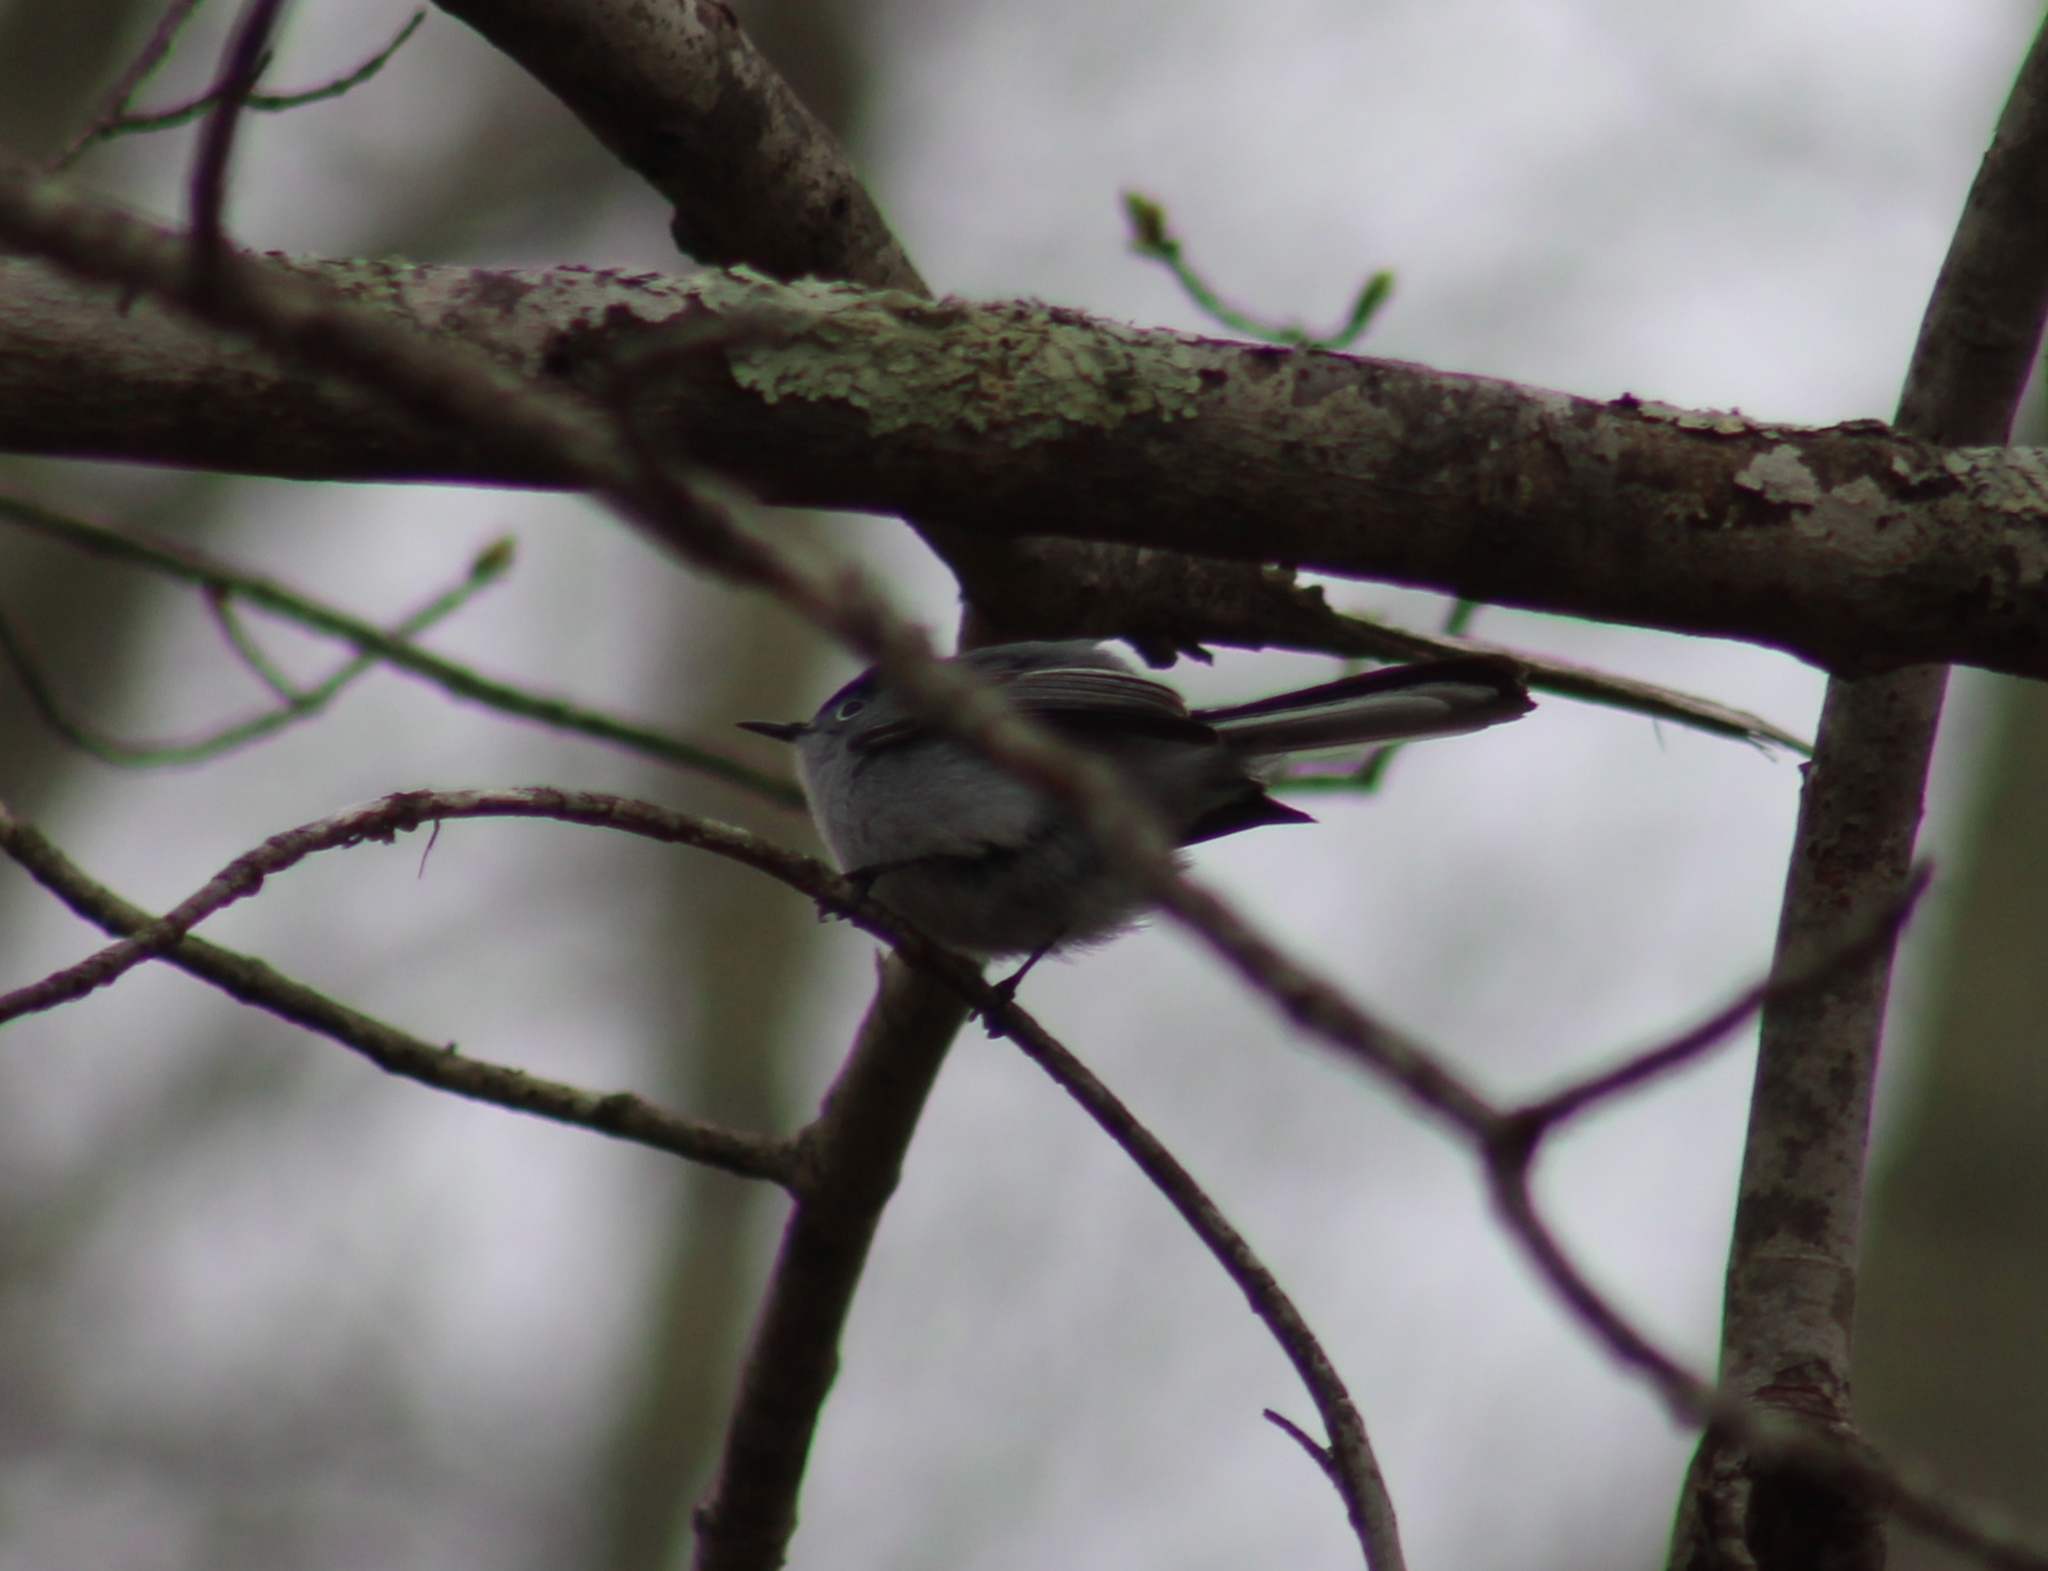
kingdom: Animalia
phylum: Chordata
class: Aves
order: Passeriformes
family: Polioptilidae
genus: Polioptila
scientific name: Polioptila caerulea
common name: Blue-gray gnatcatcher
